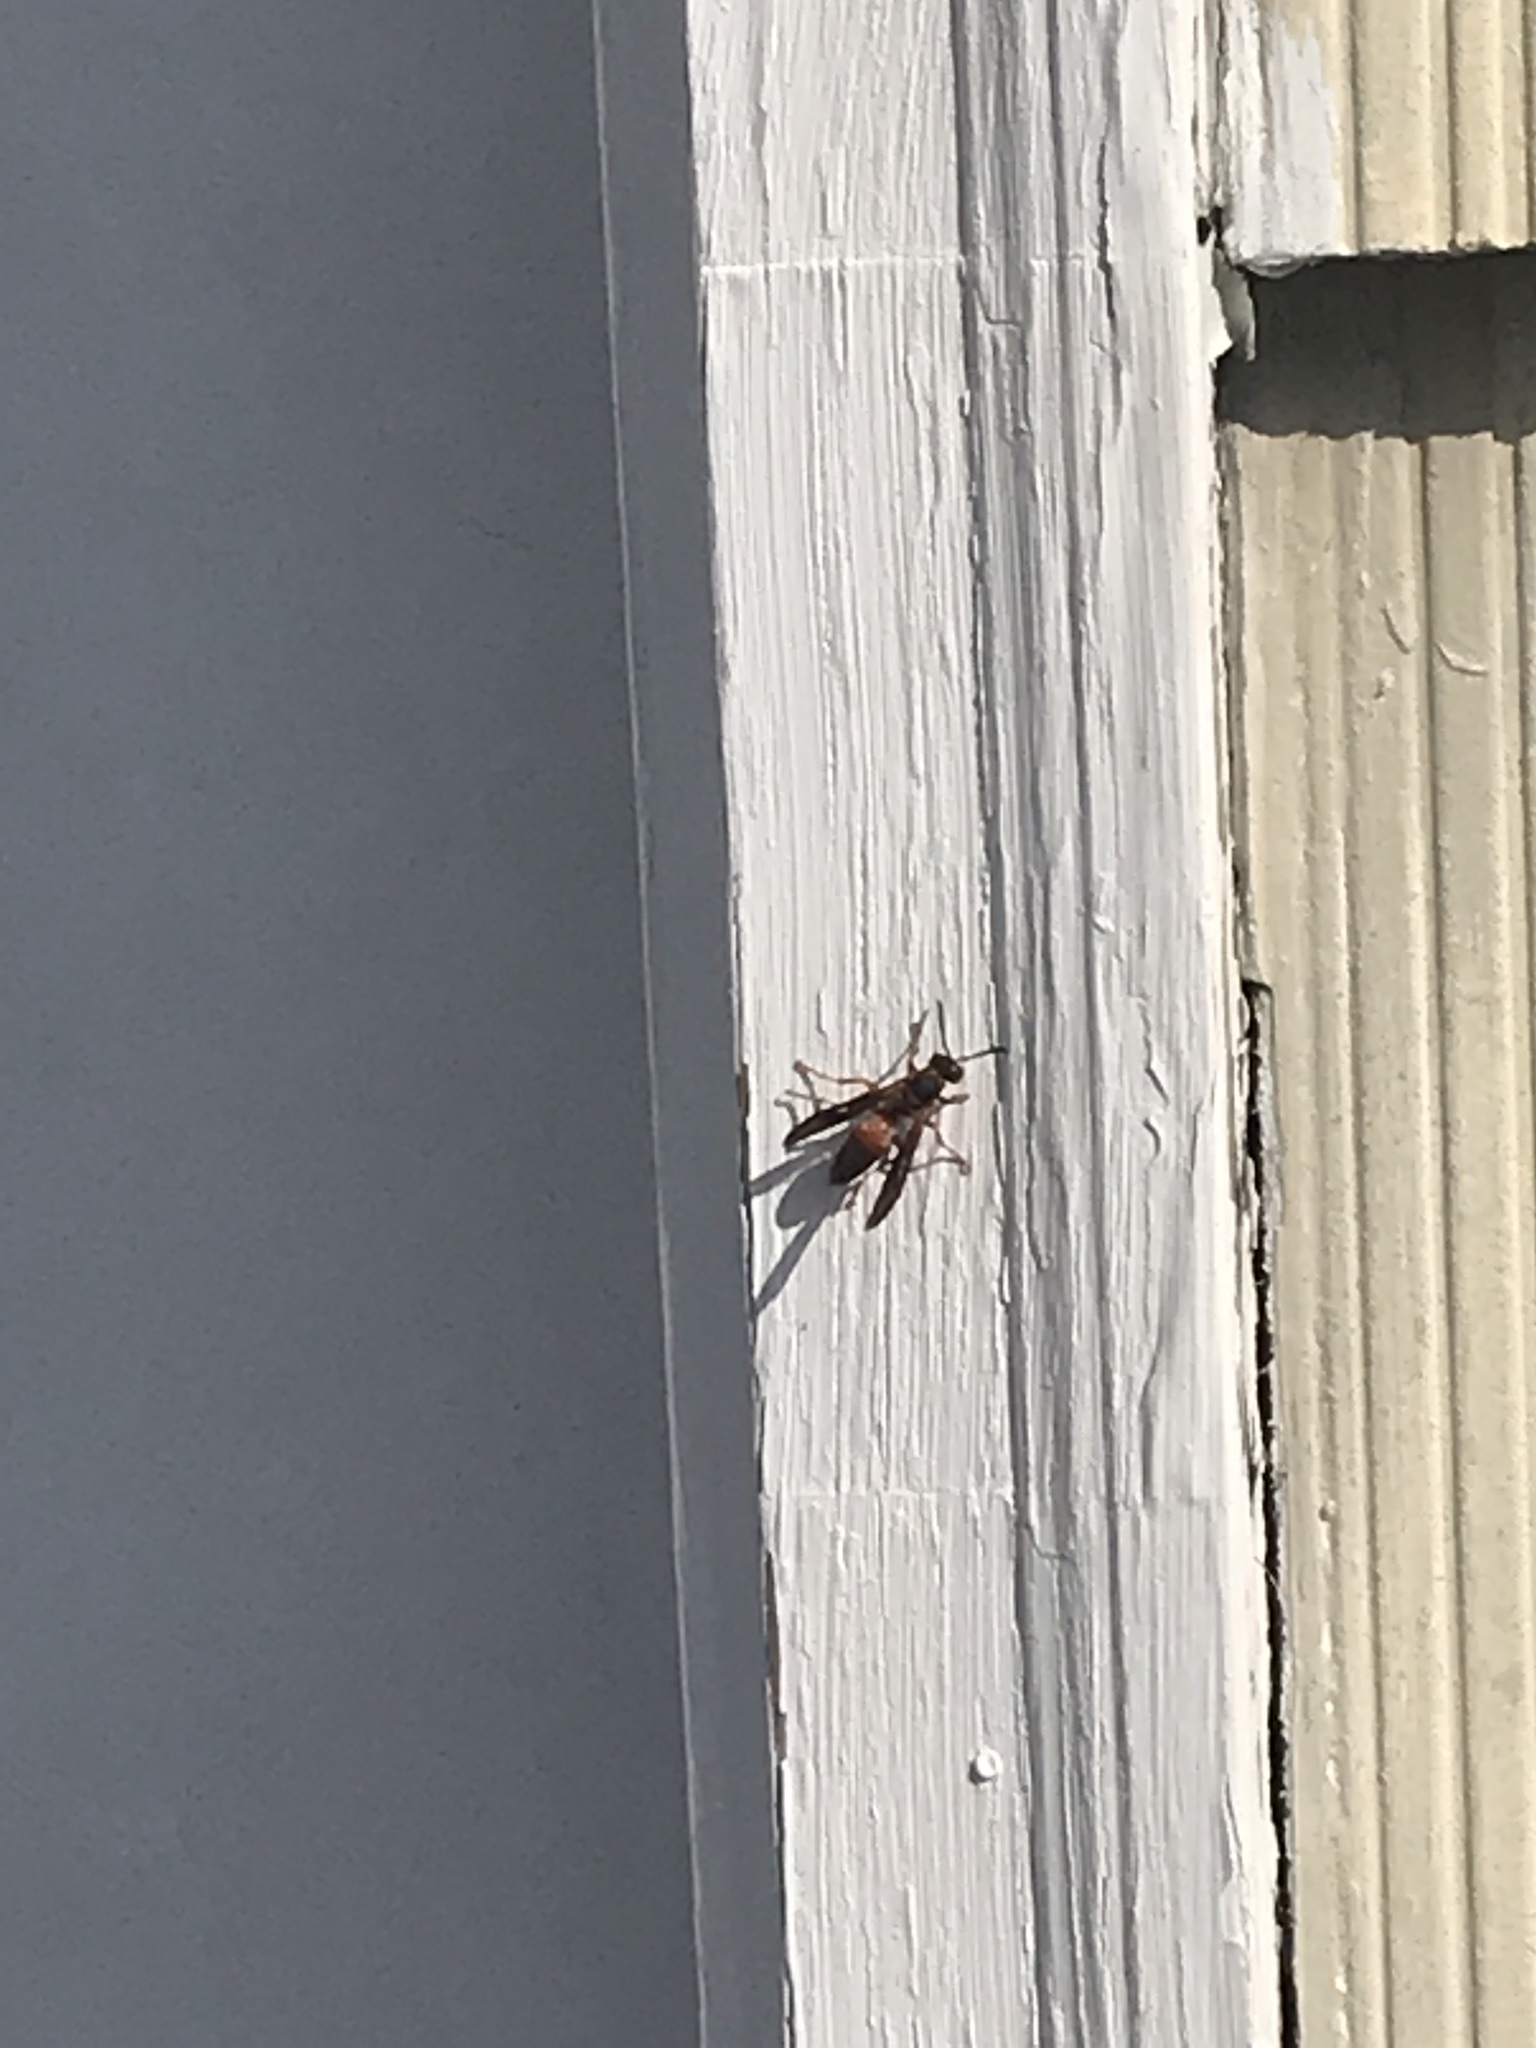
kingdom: Animalia
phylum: Arthropoda
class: Insecta
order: Hymenoptera
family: Vespidae
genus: Fuscopolistes
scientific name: Fuscopolistes
